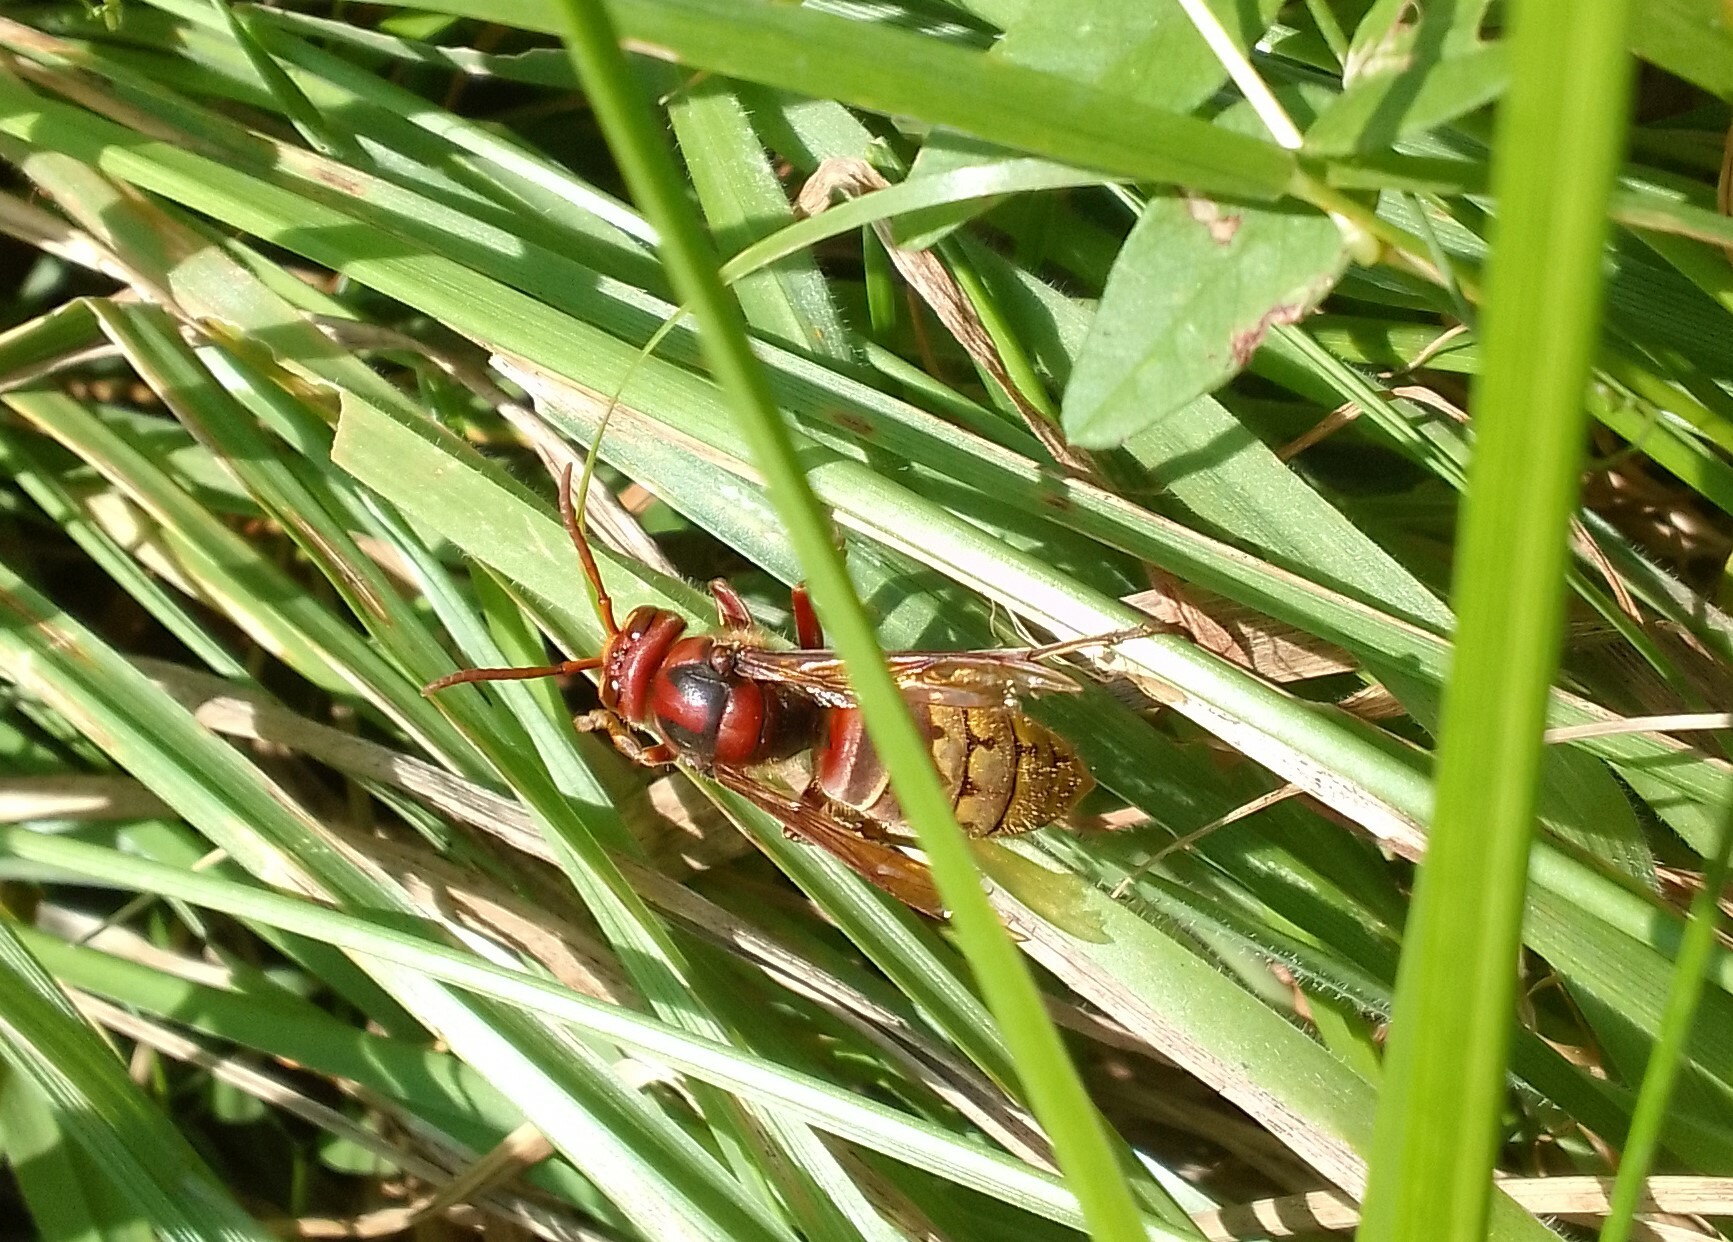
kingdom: Animalia
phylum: Arthropoda
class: Insecta
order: Hymenoptera
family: Vespidae
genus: Vespa
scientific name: Vespa crabro
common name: Hornet
